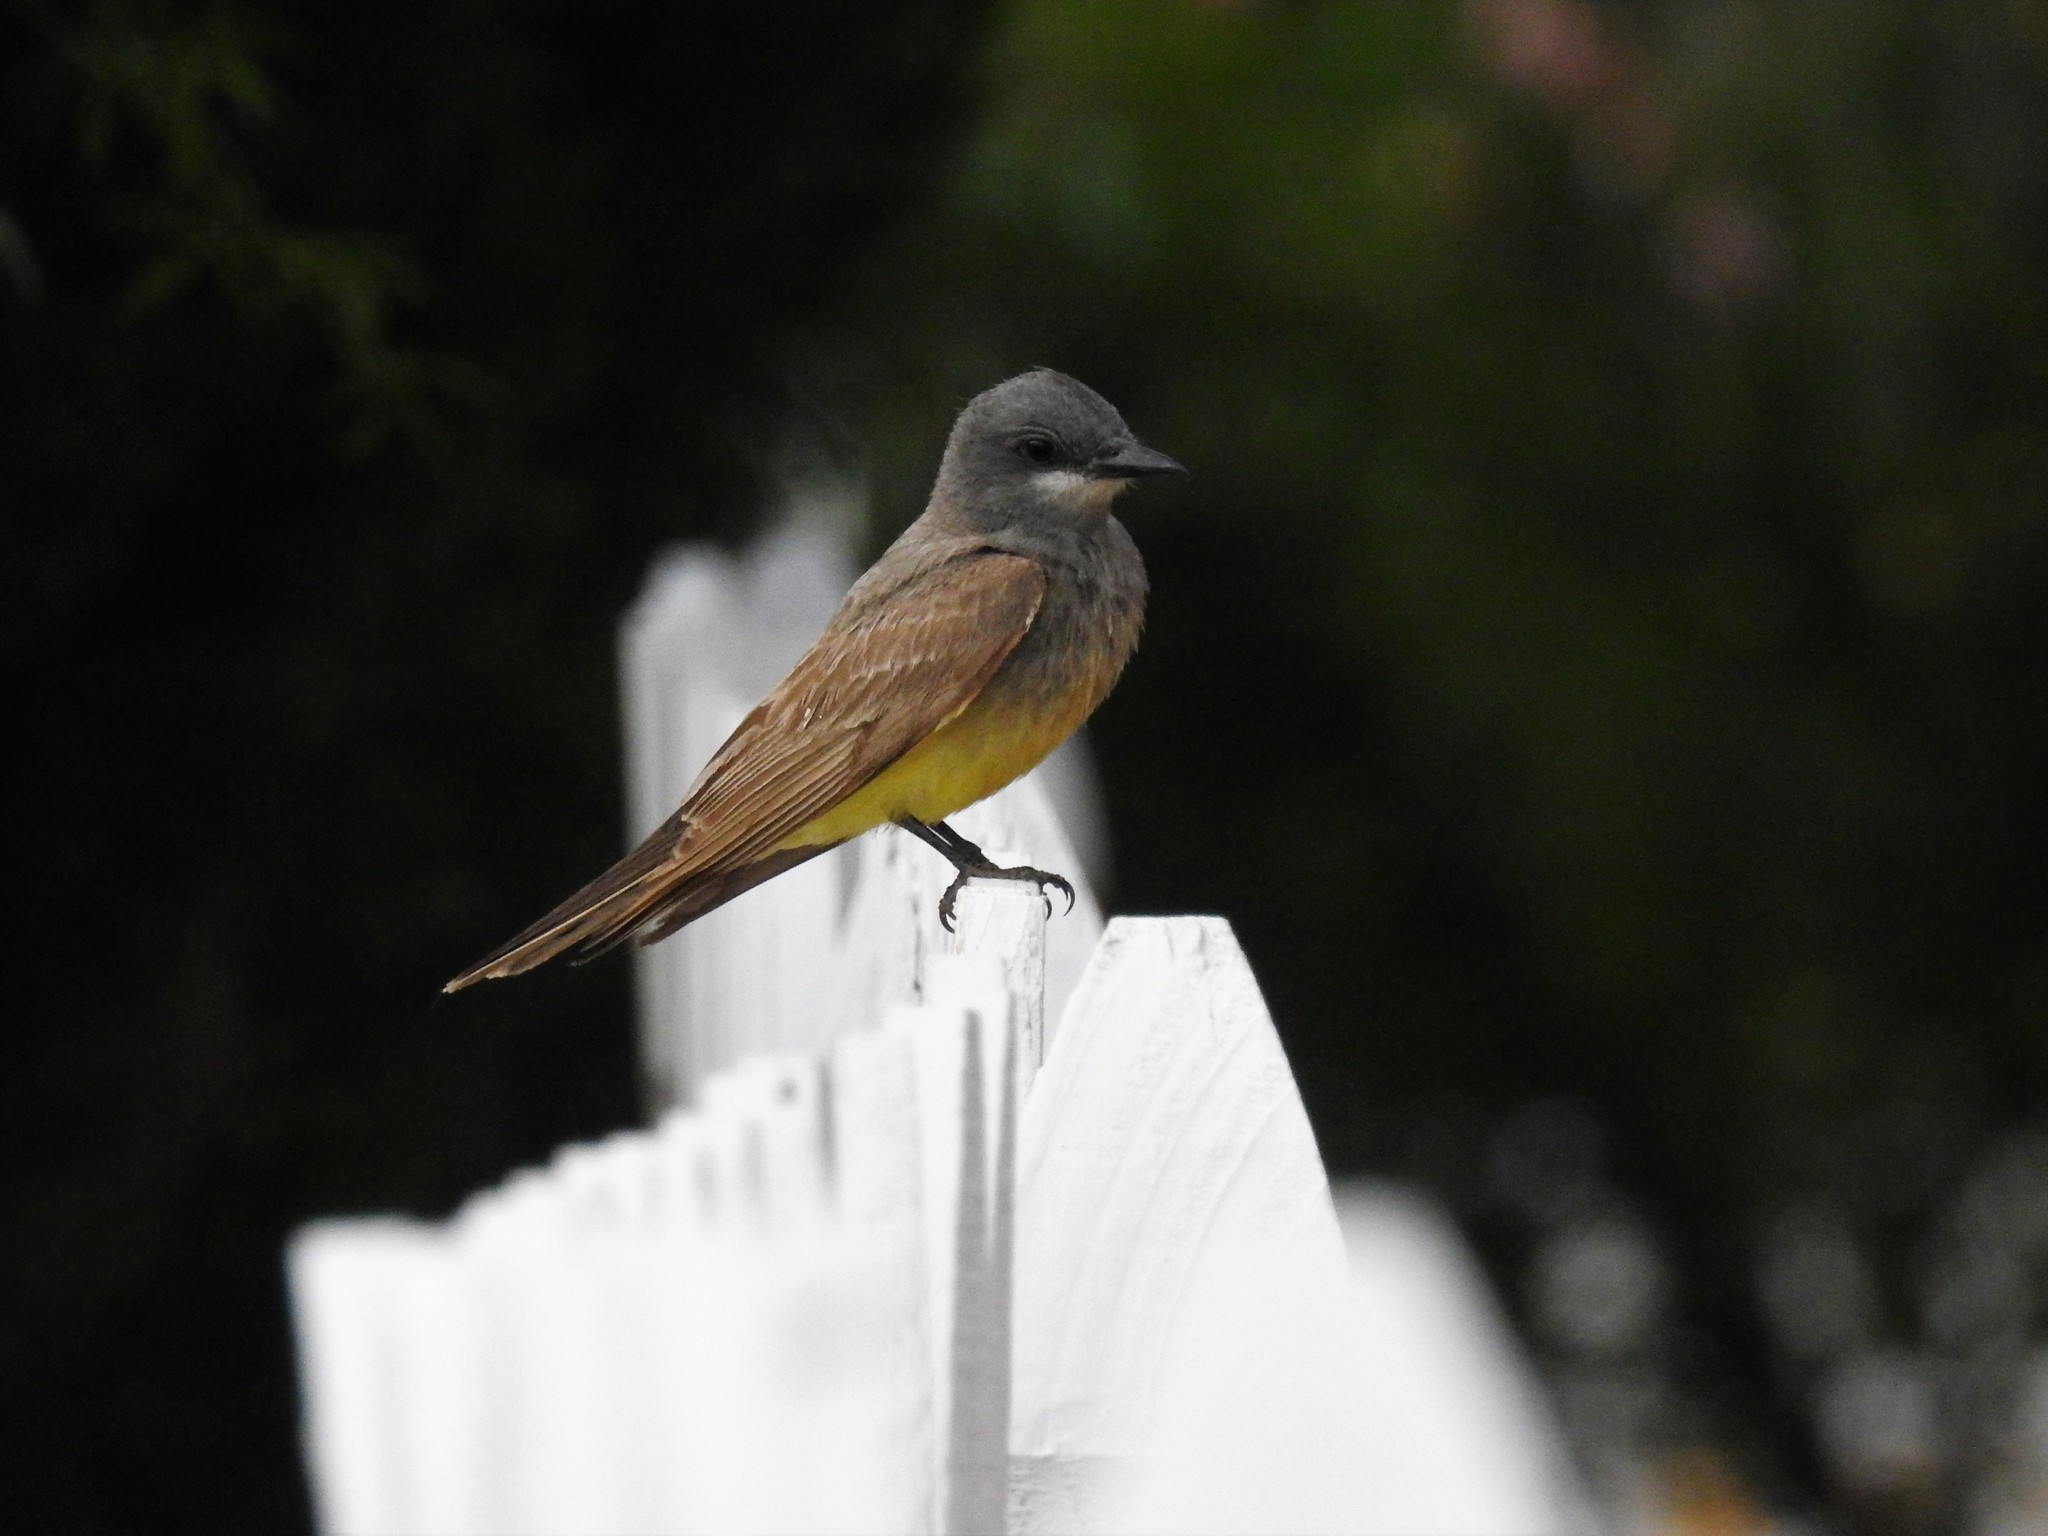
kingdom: Animalia
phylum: Chordata
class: Aves
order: Passeriformes
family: Tyrannidae
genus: Tyrannus
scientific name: Tyrannus vociferans
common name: Cassin's kingbird
